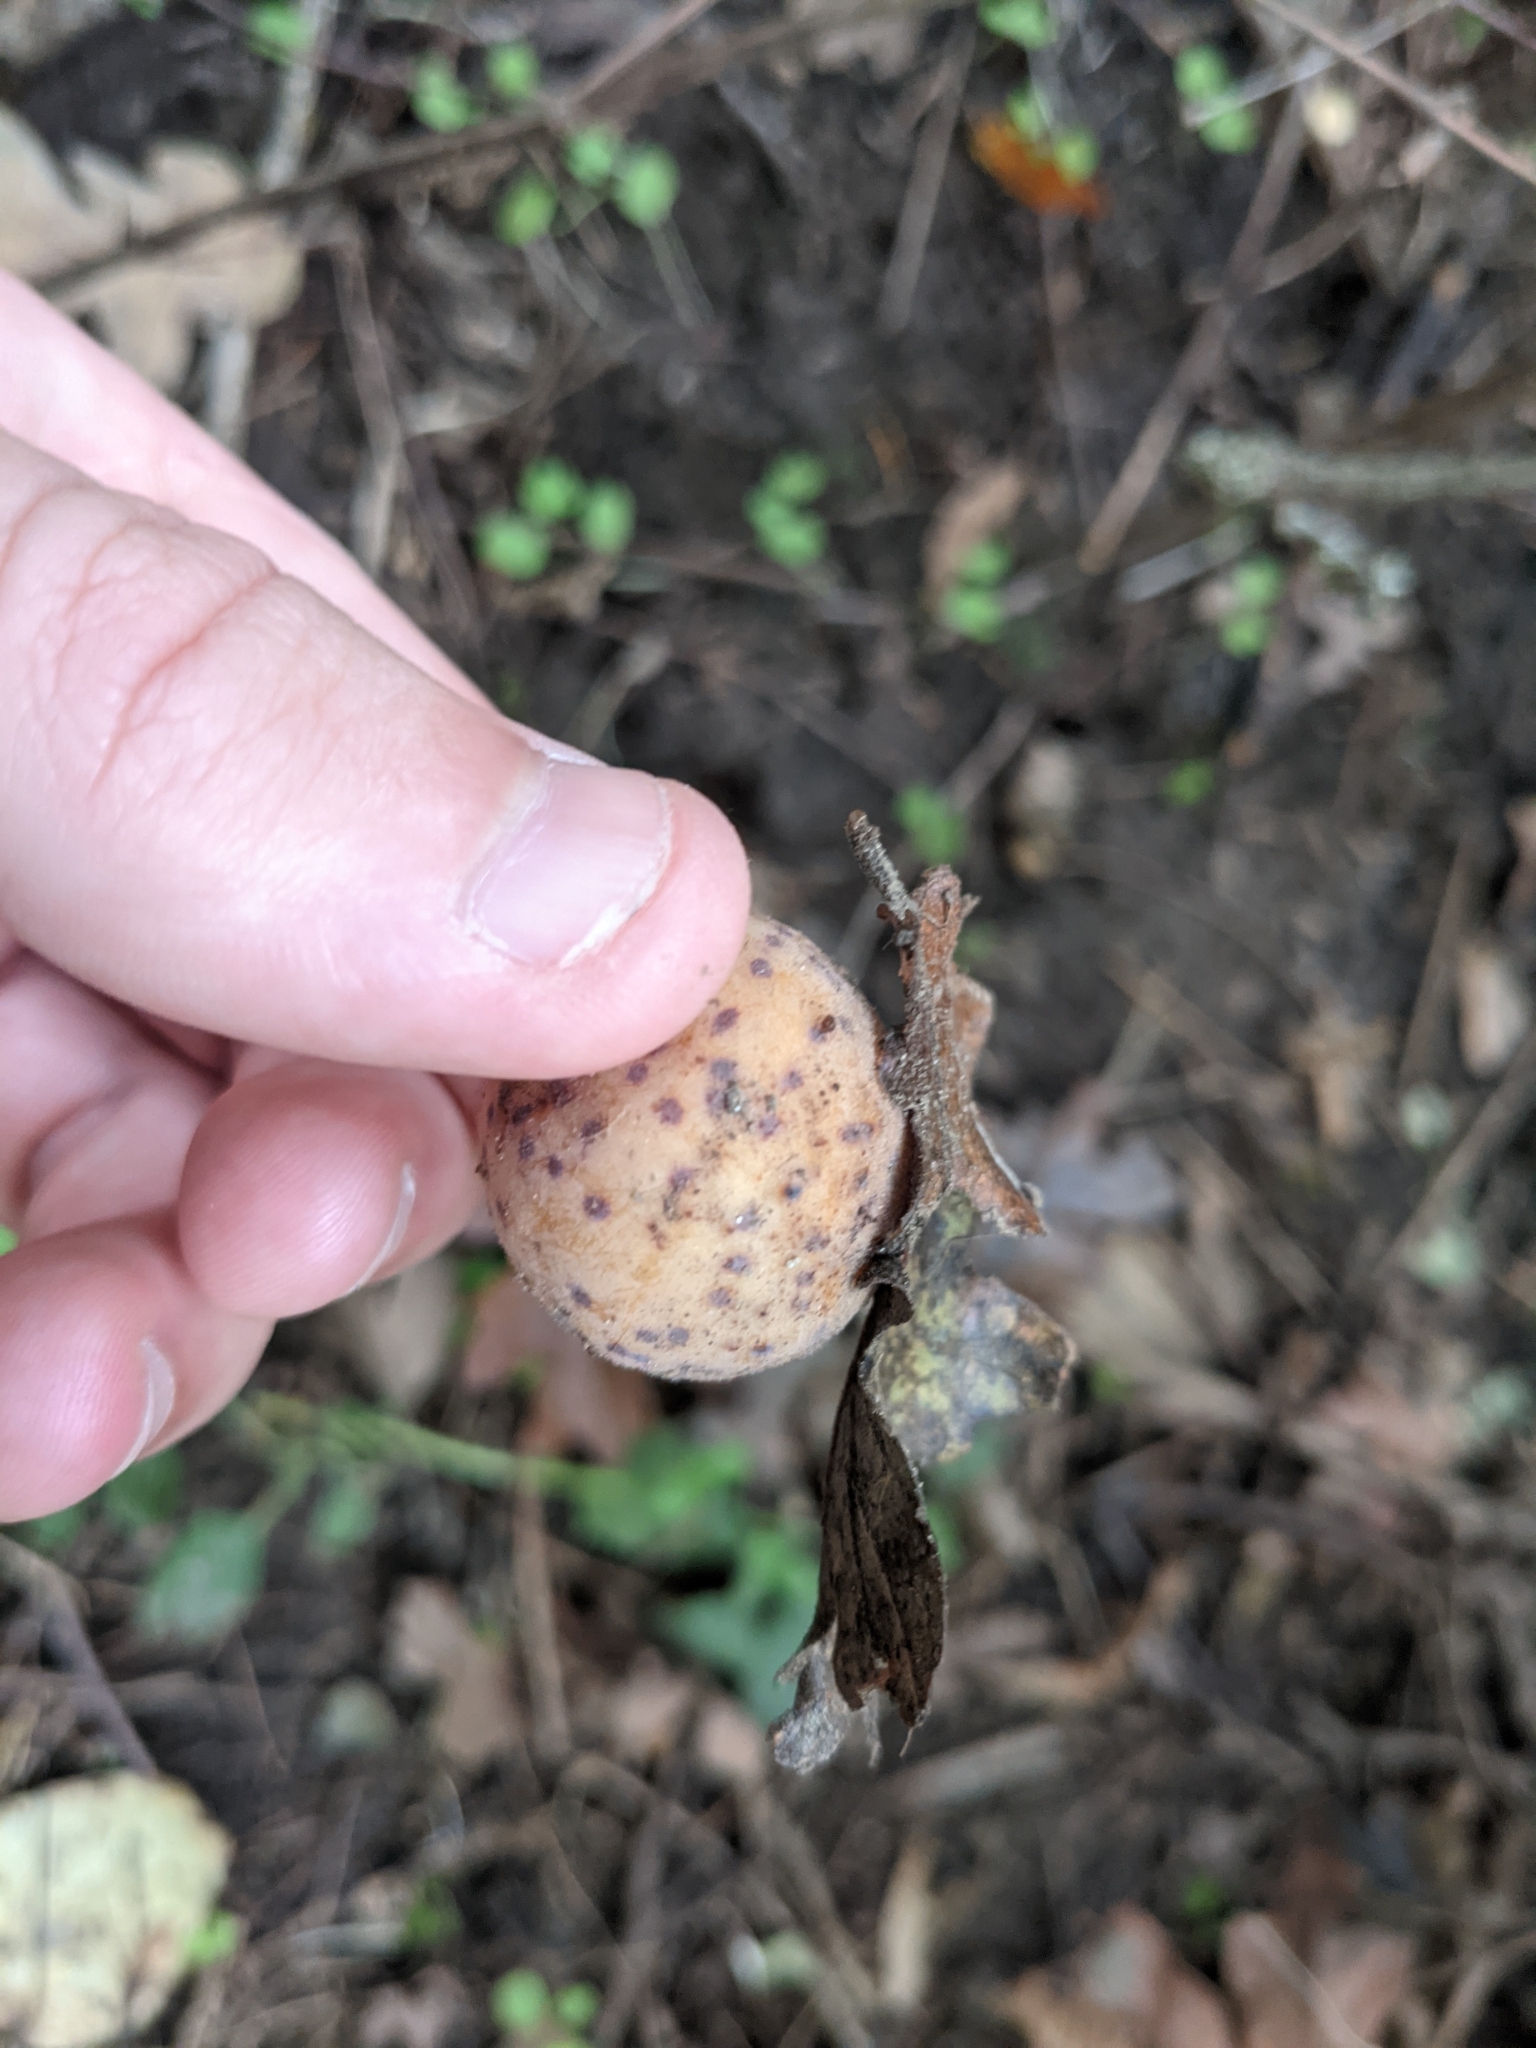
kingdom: Animalia
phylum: Arthropoda
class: Insecta
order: Hymenoptera
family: Cynipidae
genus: Cynips
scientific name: Cynips
